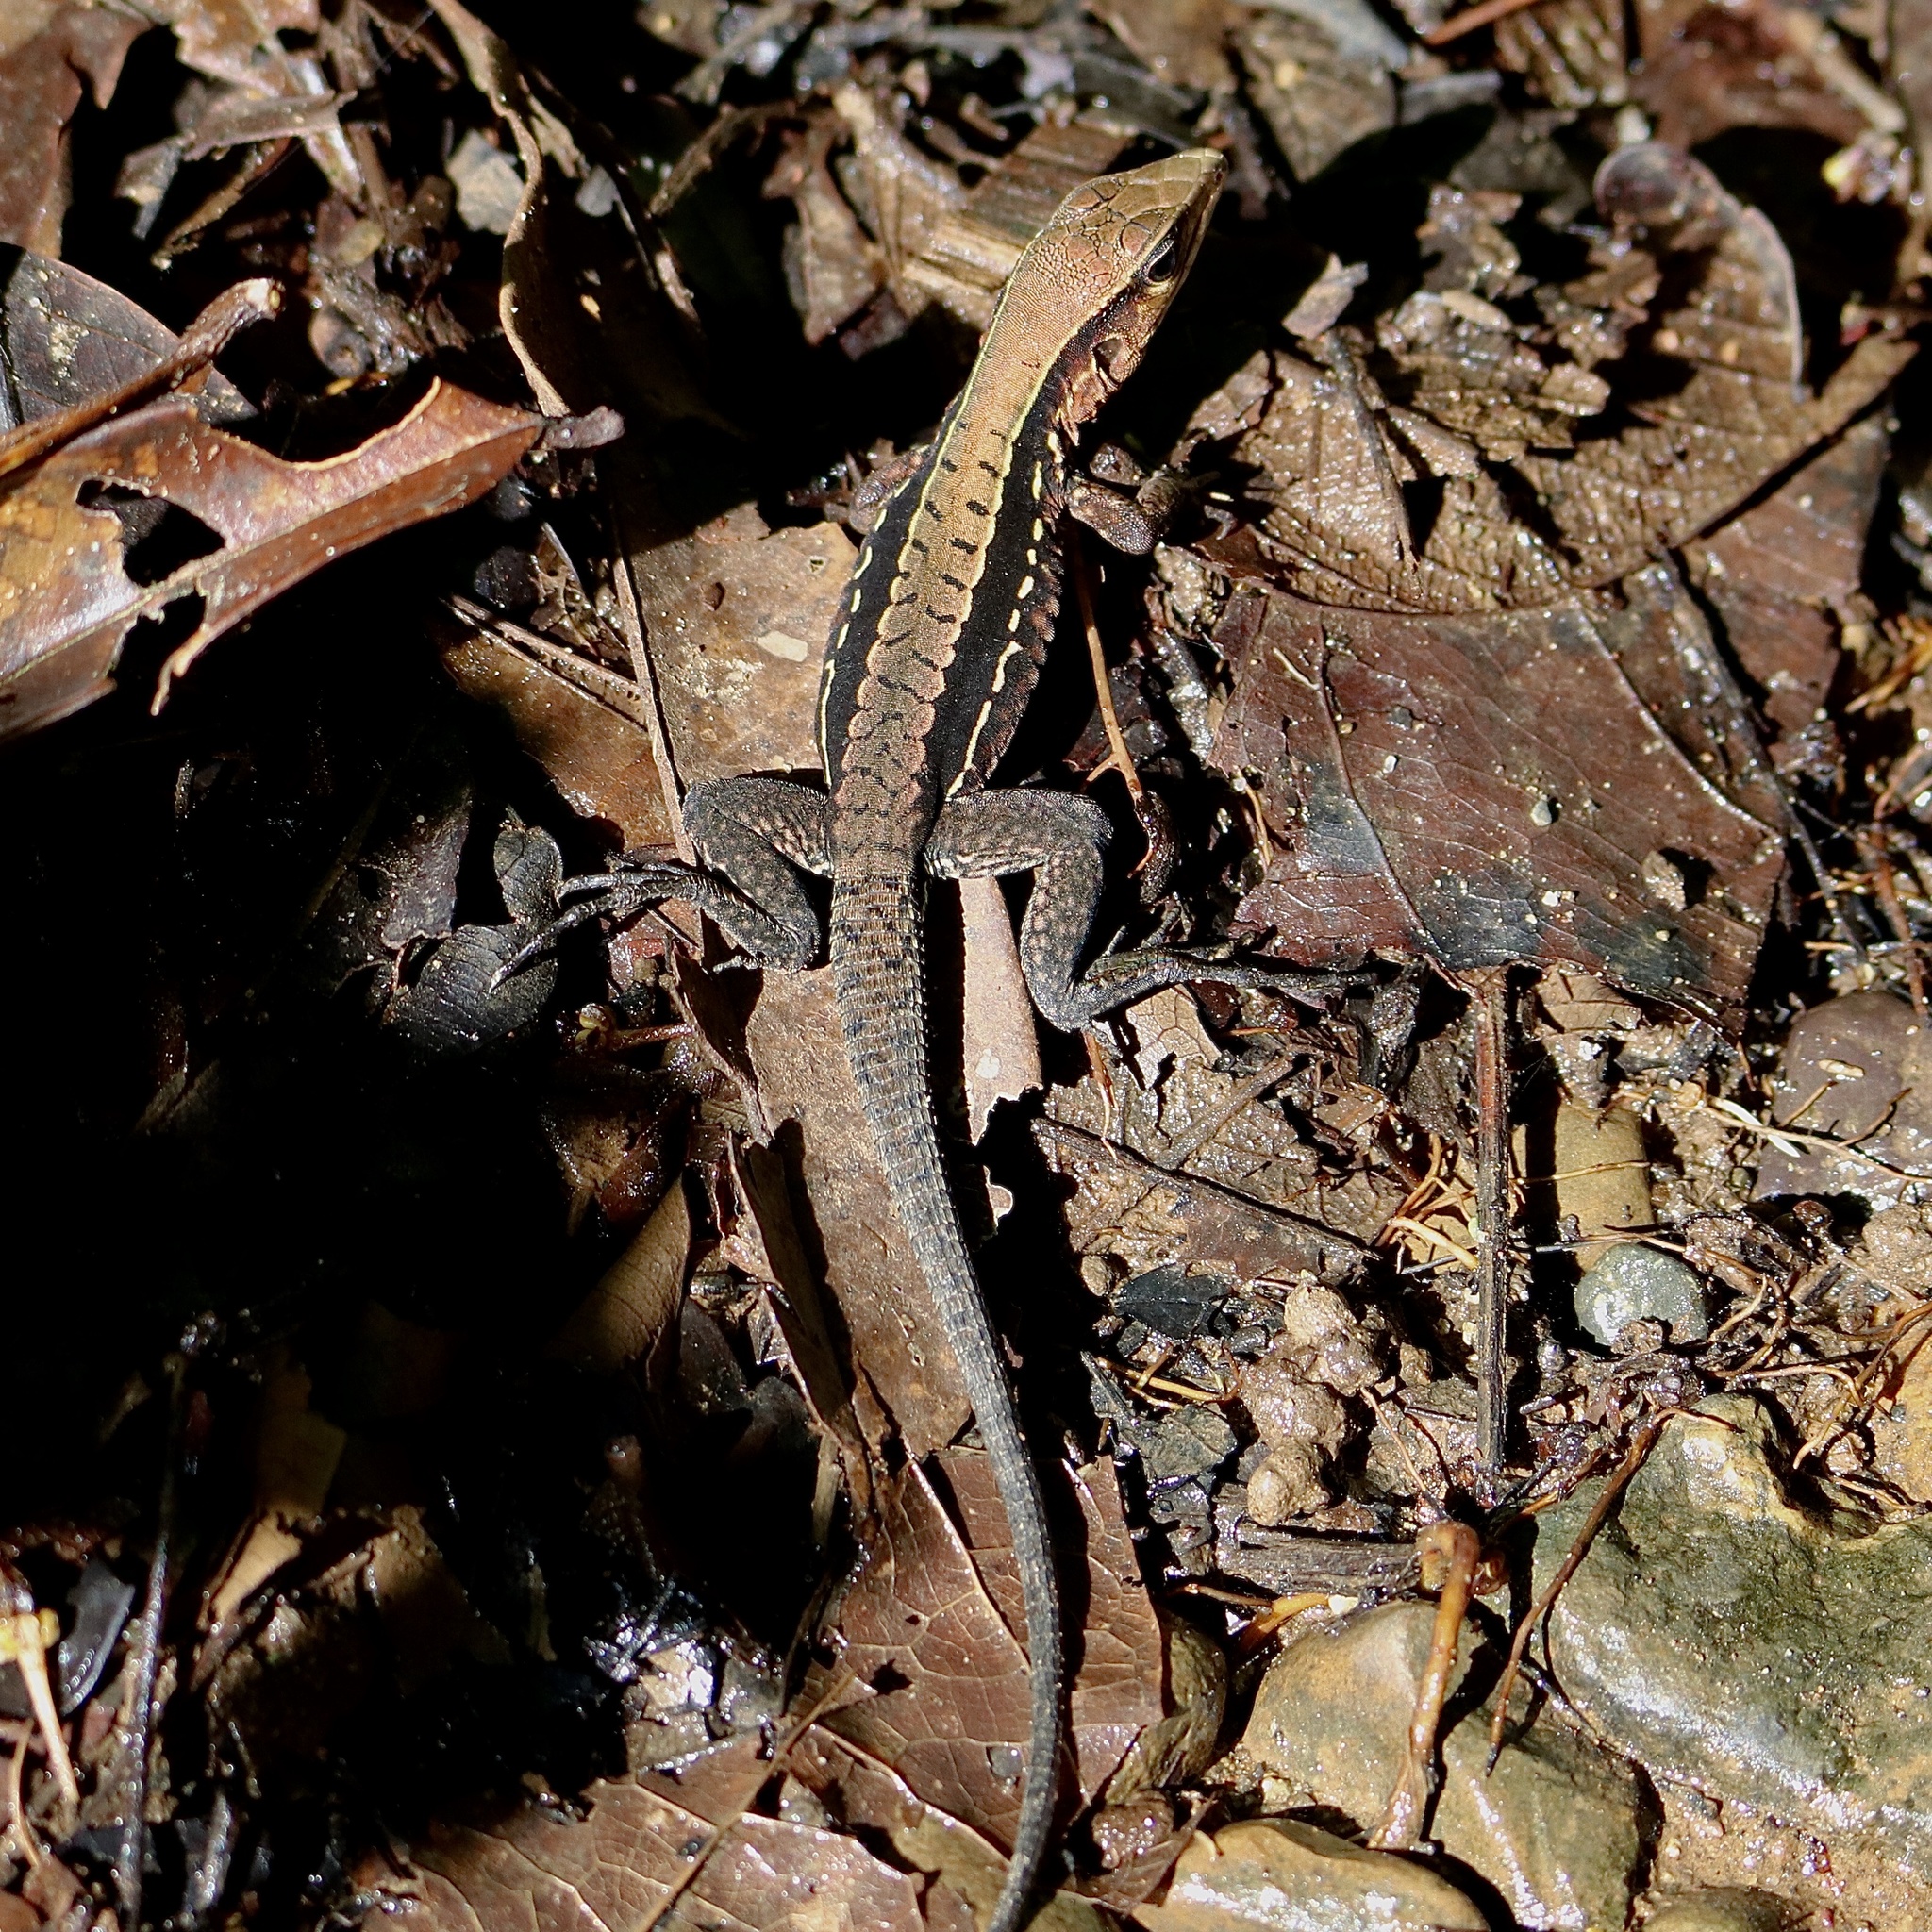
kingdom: Animalia
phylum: Chordata
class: Squamata
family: Teiidae
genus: Holcosus
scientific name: Holcosus leptophrys
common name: Delicate ameiva
